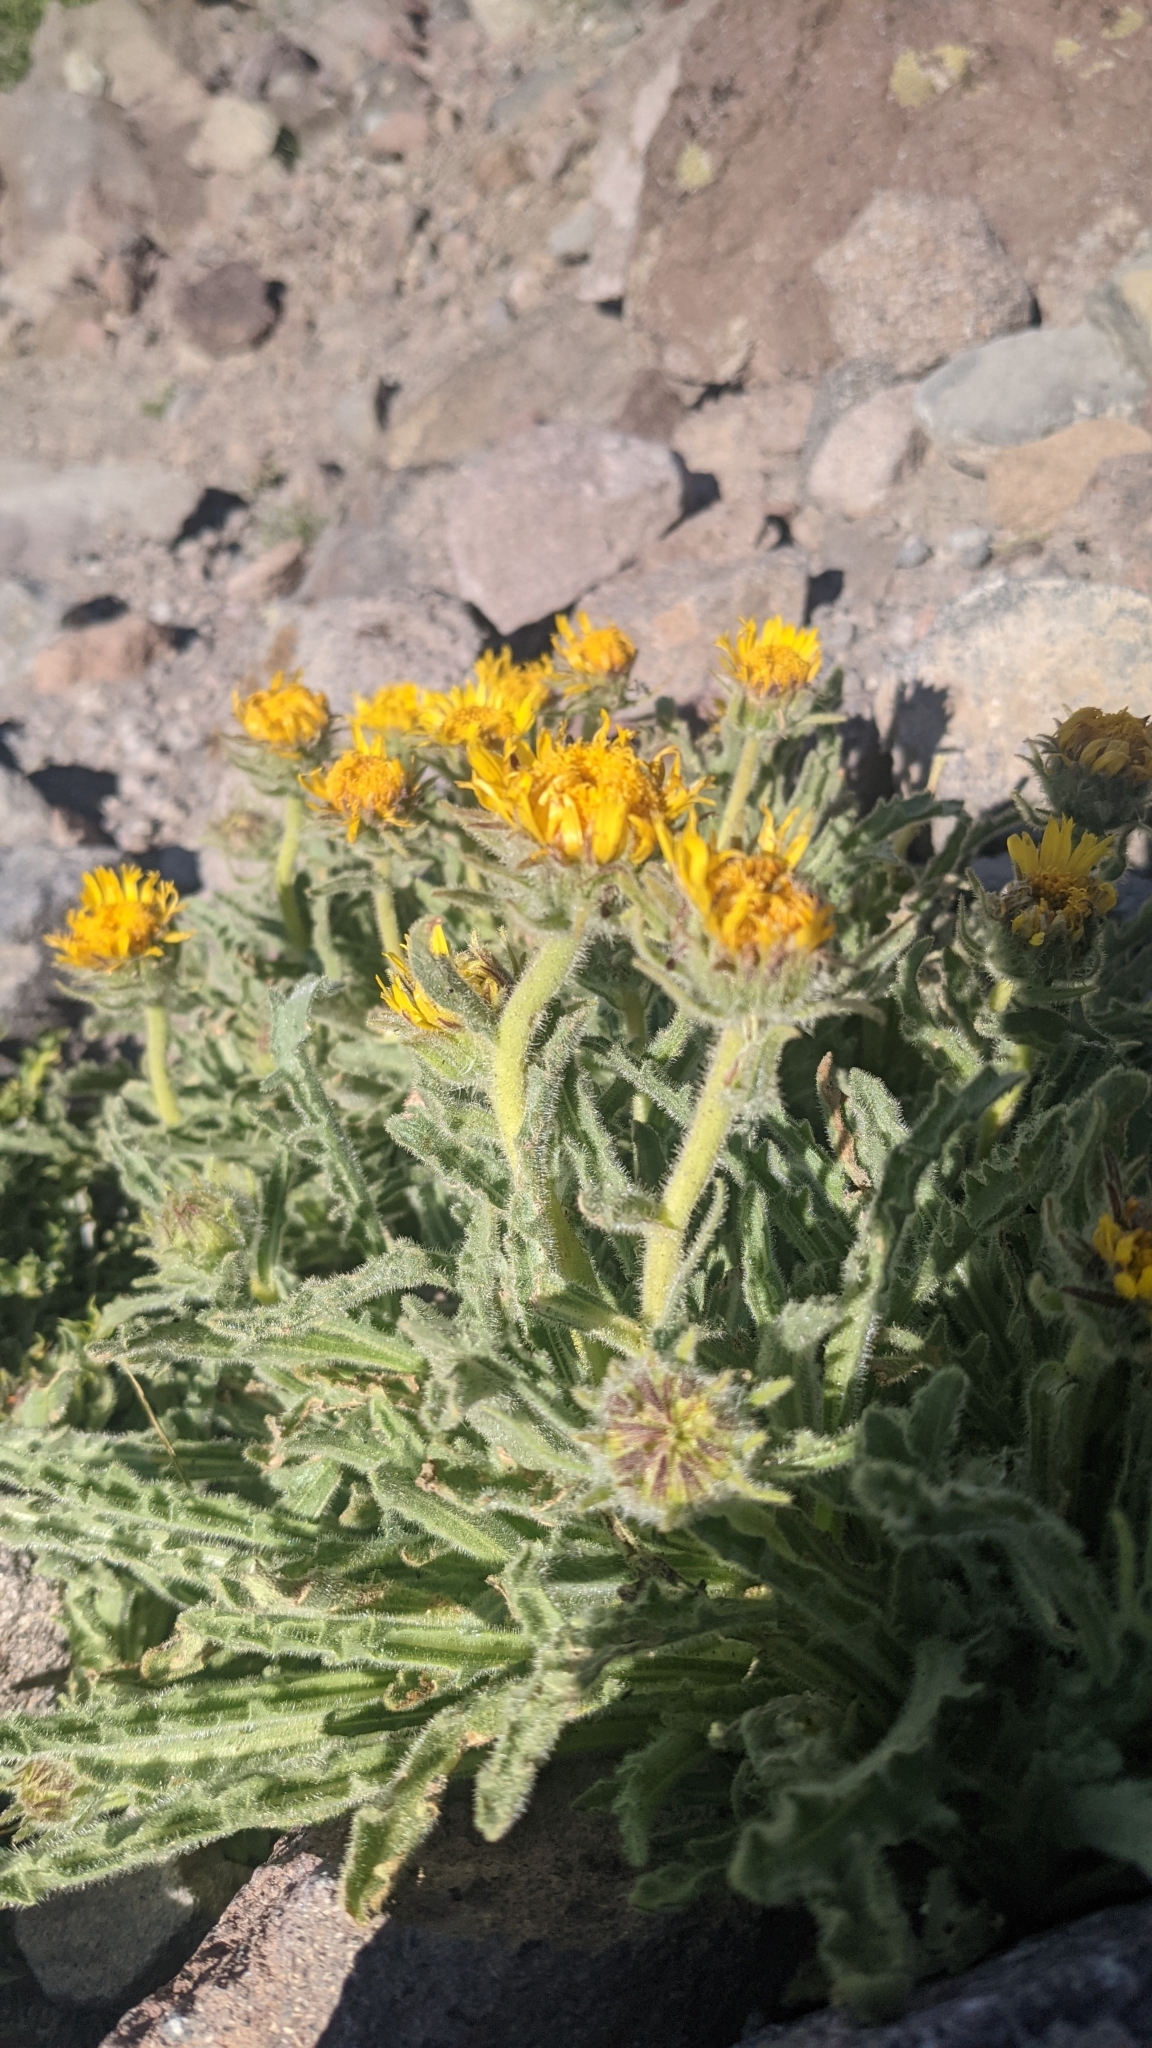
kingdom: Plantae
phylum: Tracheophyta
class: Magnoliopsida
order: Asterales
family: Asteraceae
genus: Hulsea
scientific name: Hulsea algida
